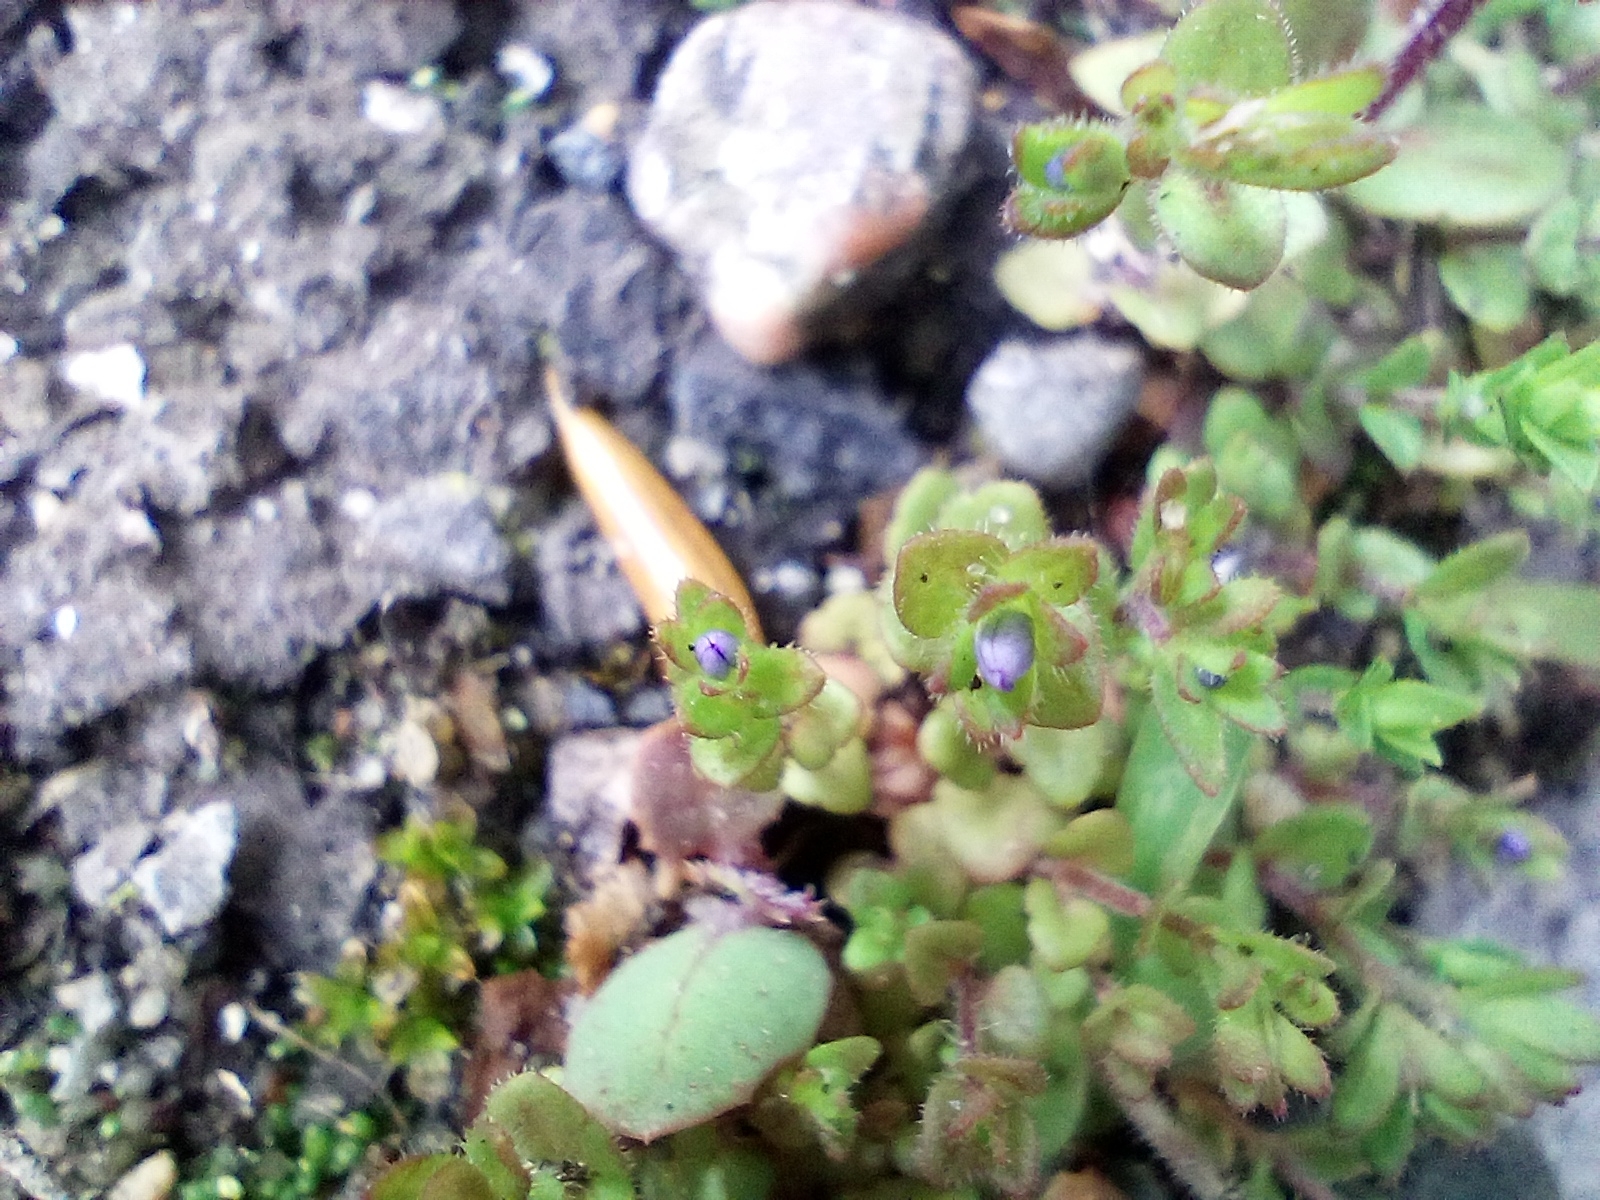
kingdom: Plantae
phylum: Tracheophyta
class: Magnoliopsida
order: Lamiales
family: Plantaginaceae
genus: Veronica
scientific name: Veronica arvensis
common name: Corn speedwell
